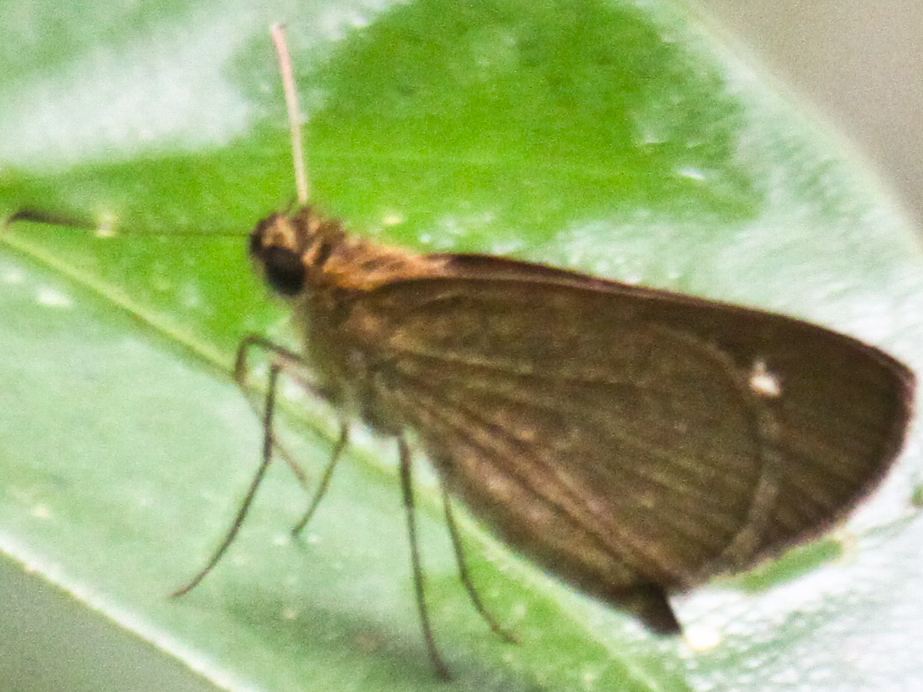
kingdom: Animalia
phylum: Arthropoda
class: Insecta
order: Lepidoptera
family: Hesperiidae
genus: Suada
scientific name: Suada swerga
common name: Grass bob
